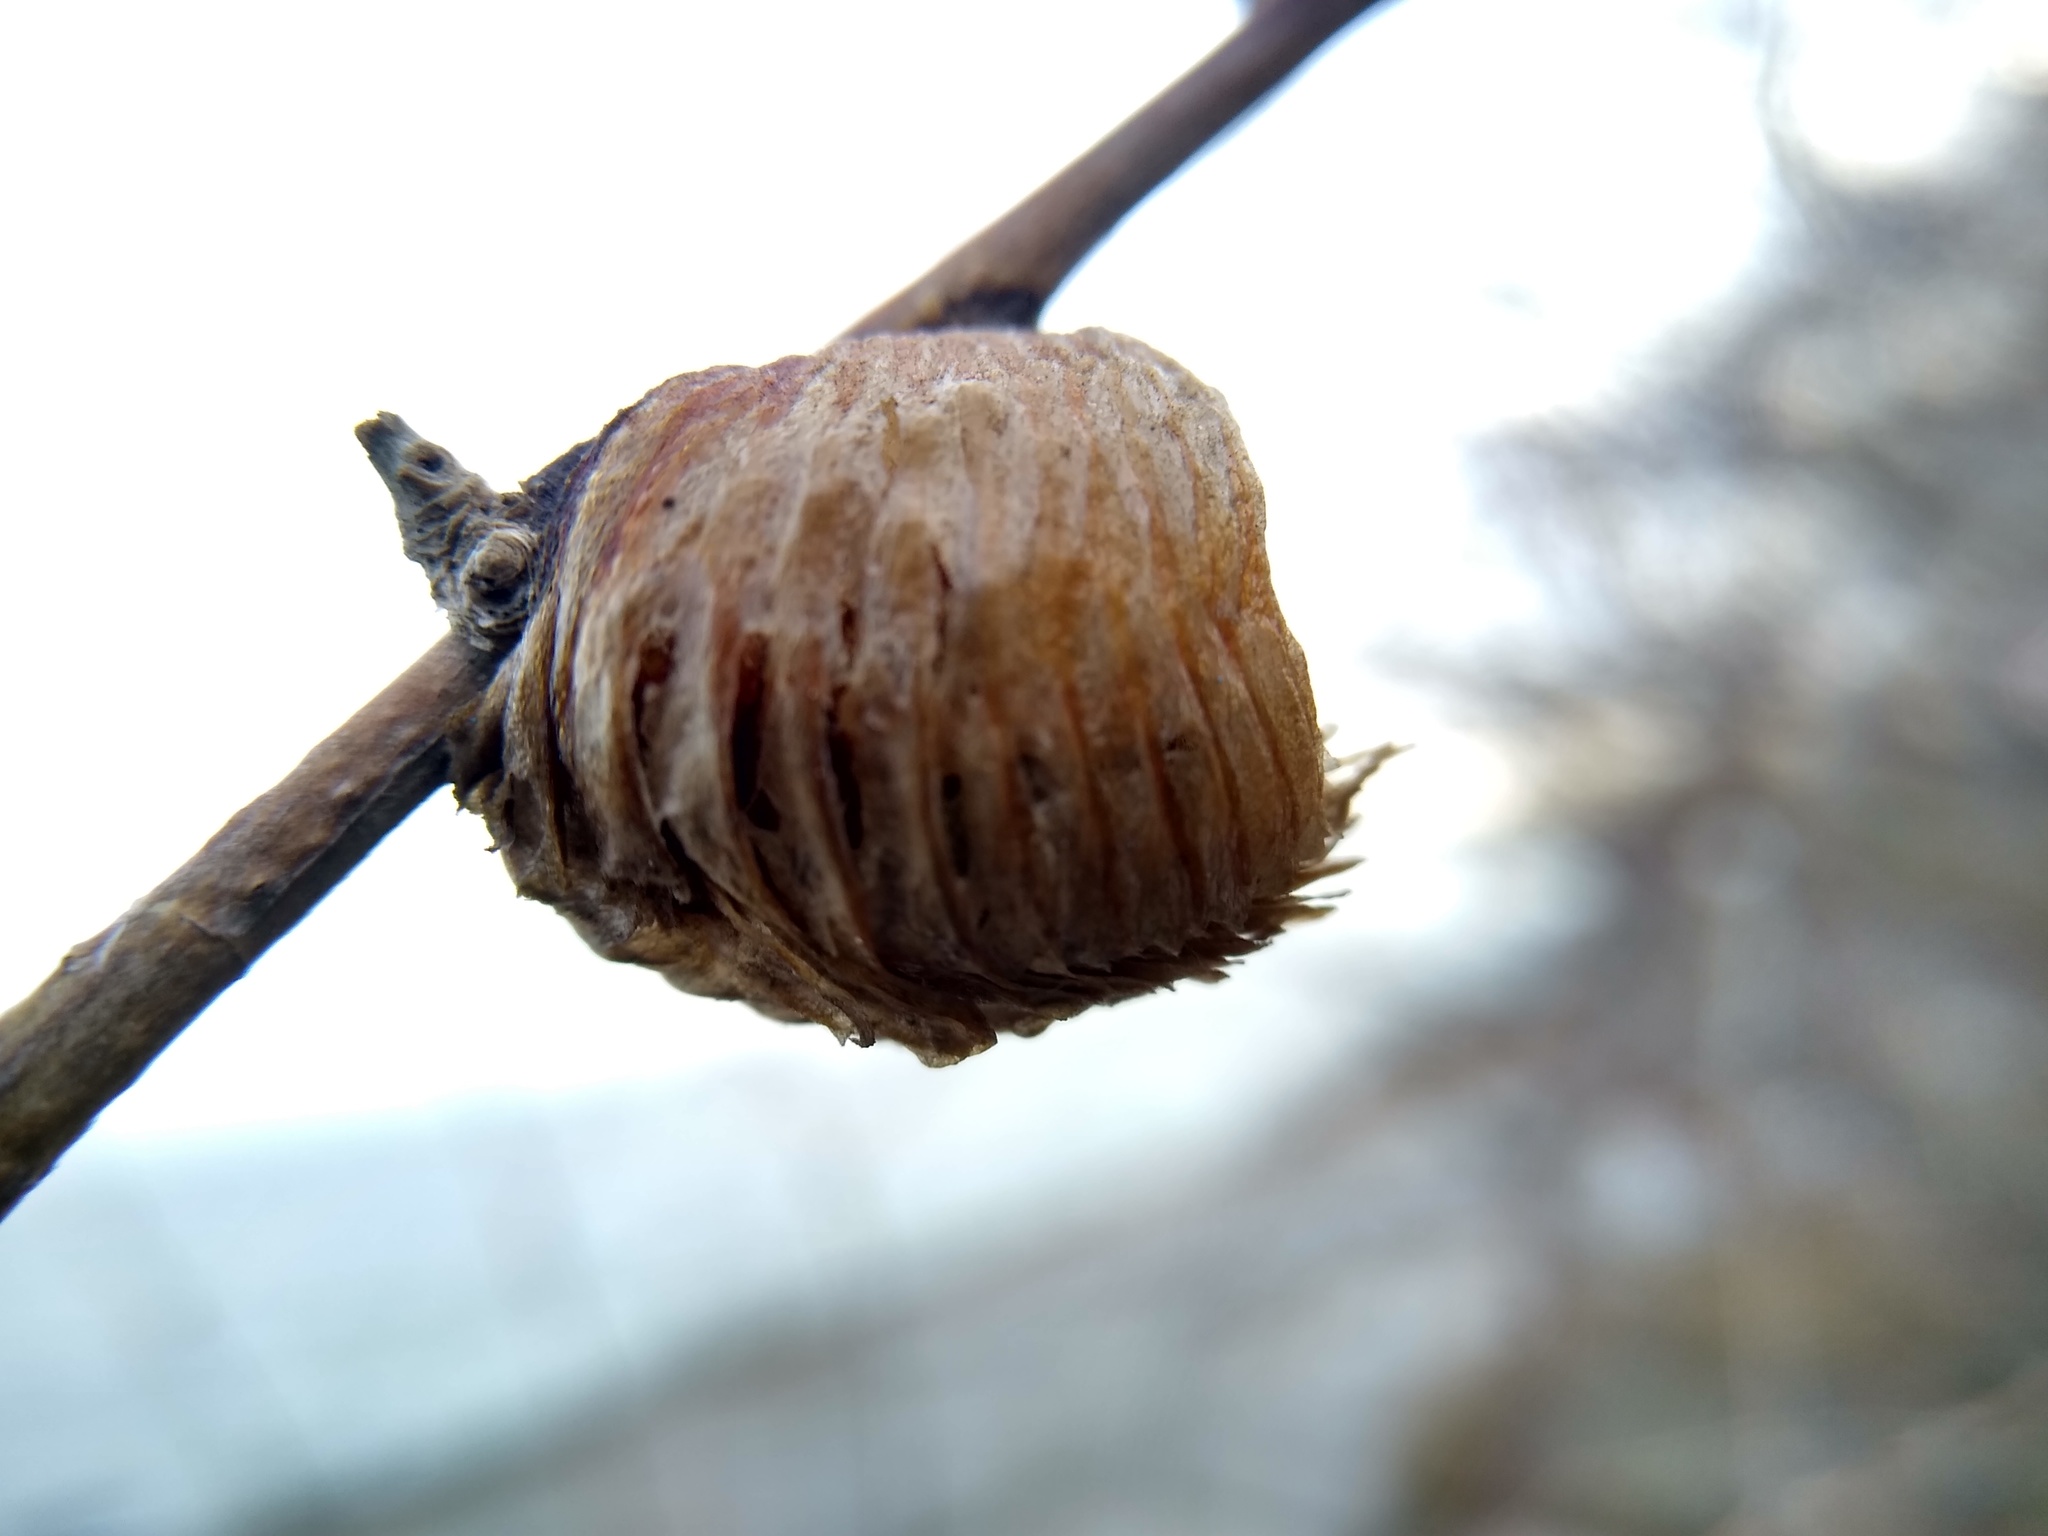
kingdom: Animalia
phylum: Arthropoda
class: Insecta
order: Mantodea
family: Mantidae
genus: Hierodula
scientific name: Hierodula transcaucasica
